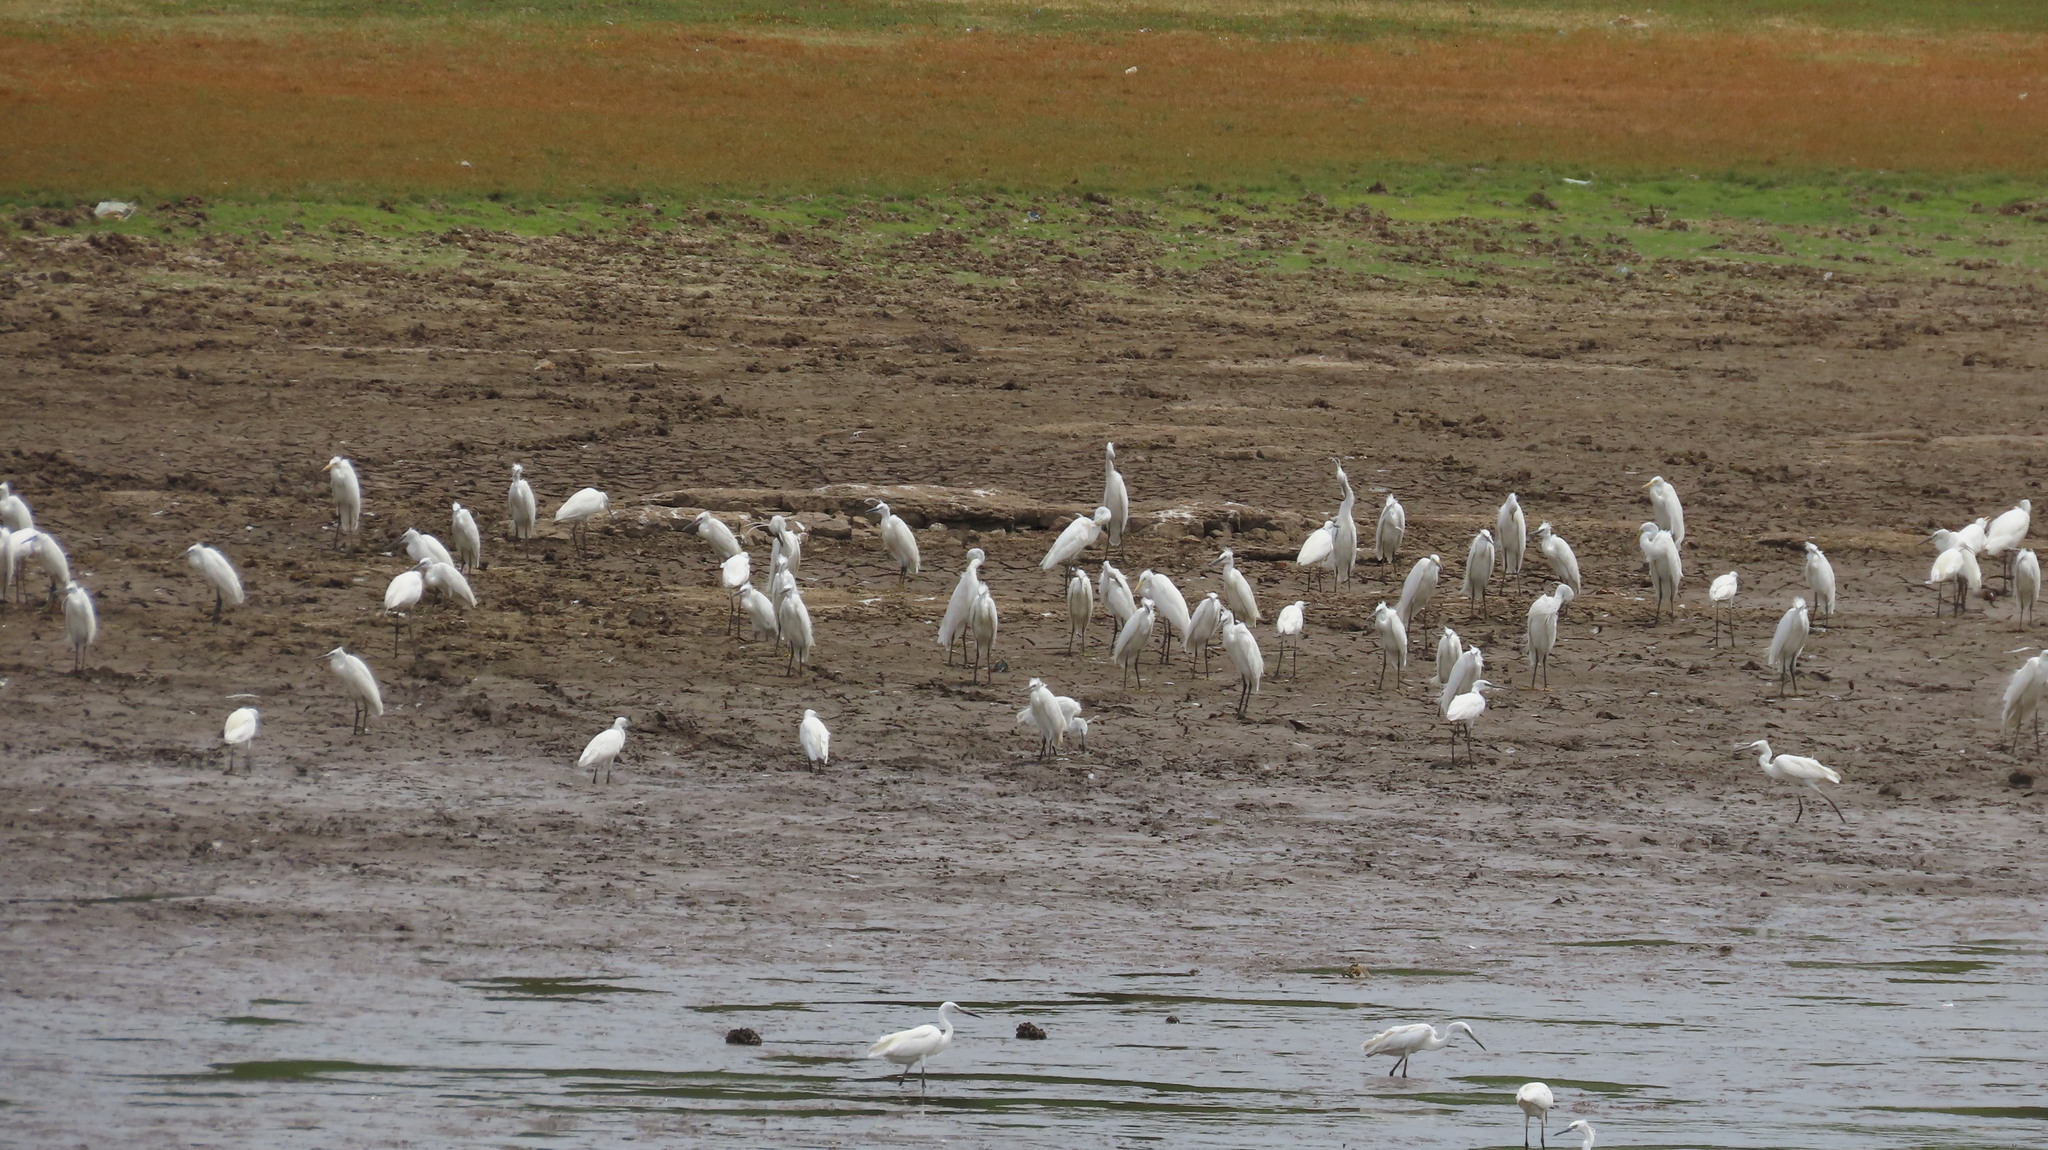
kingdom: Animalia
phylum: Chordata
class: Aves
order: Pelecaniformes
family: Ardeidae
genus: Egretta
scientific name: Egretta garzetta
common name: Little egret
